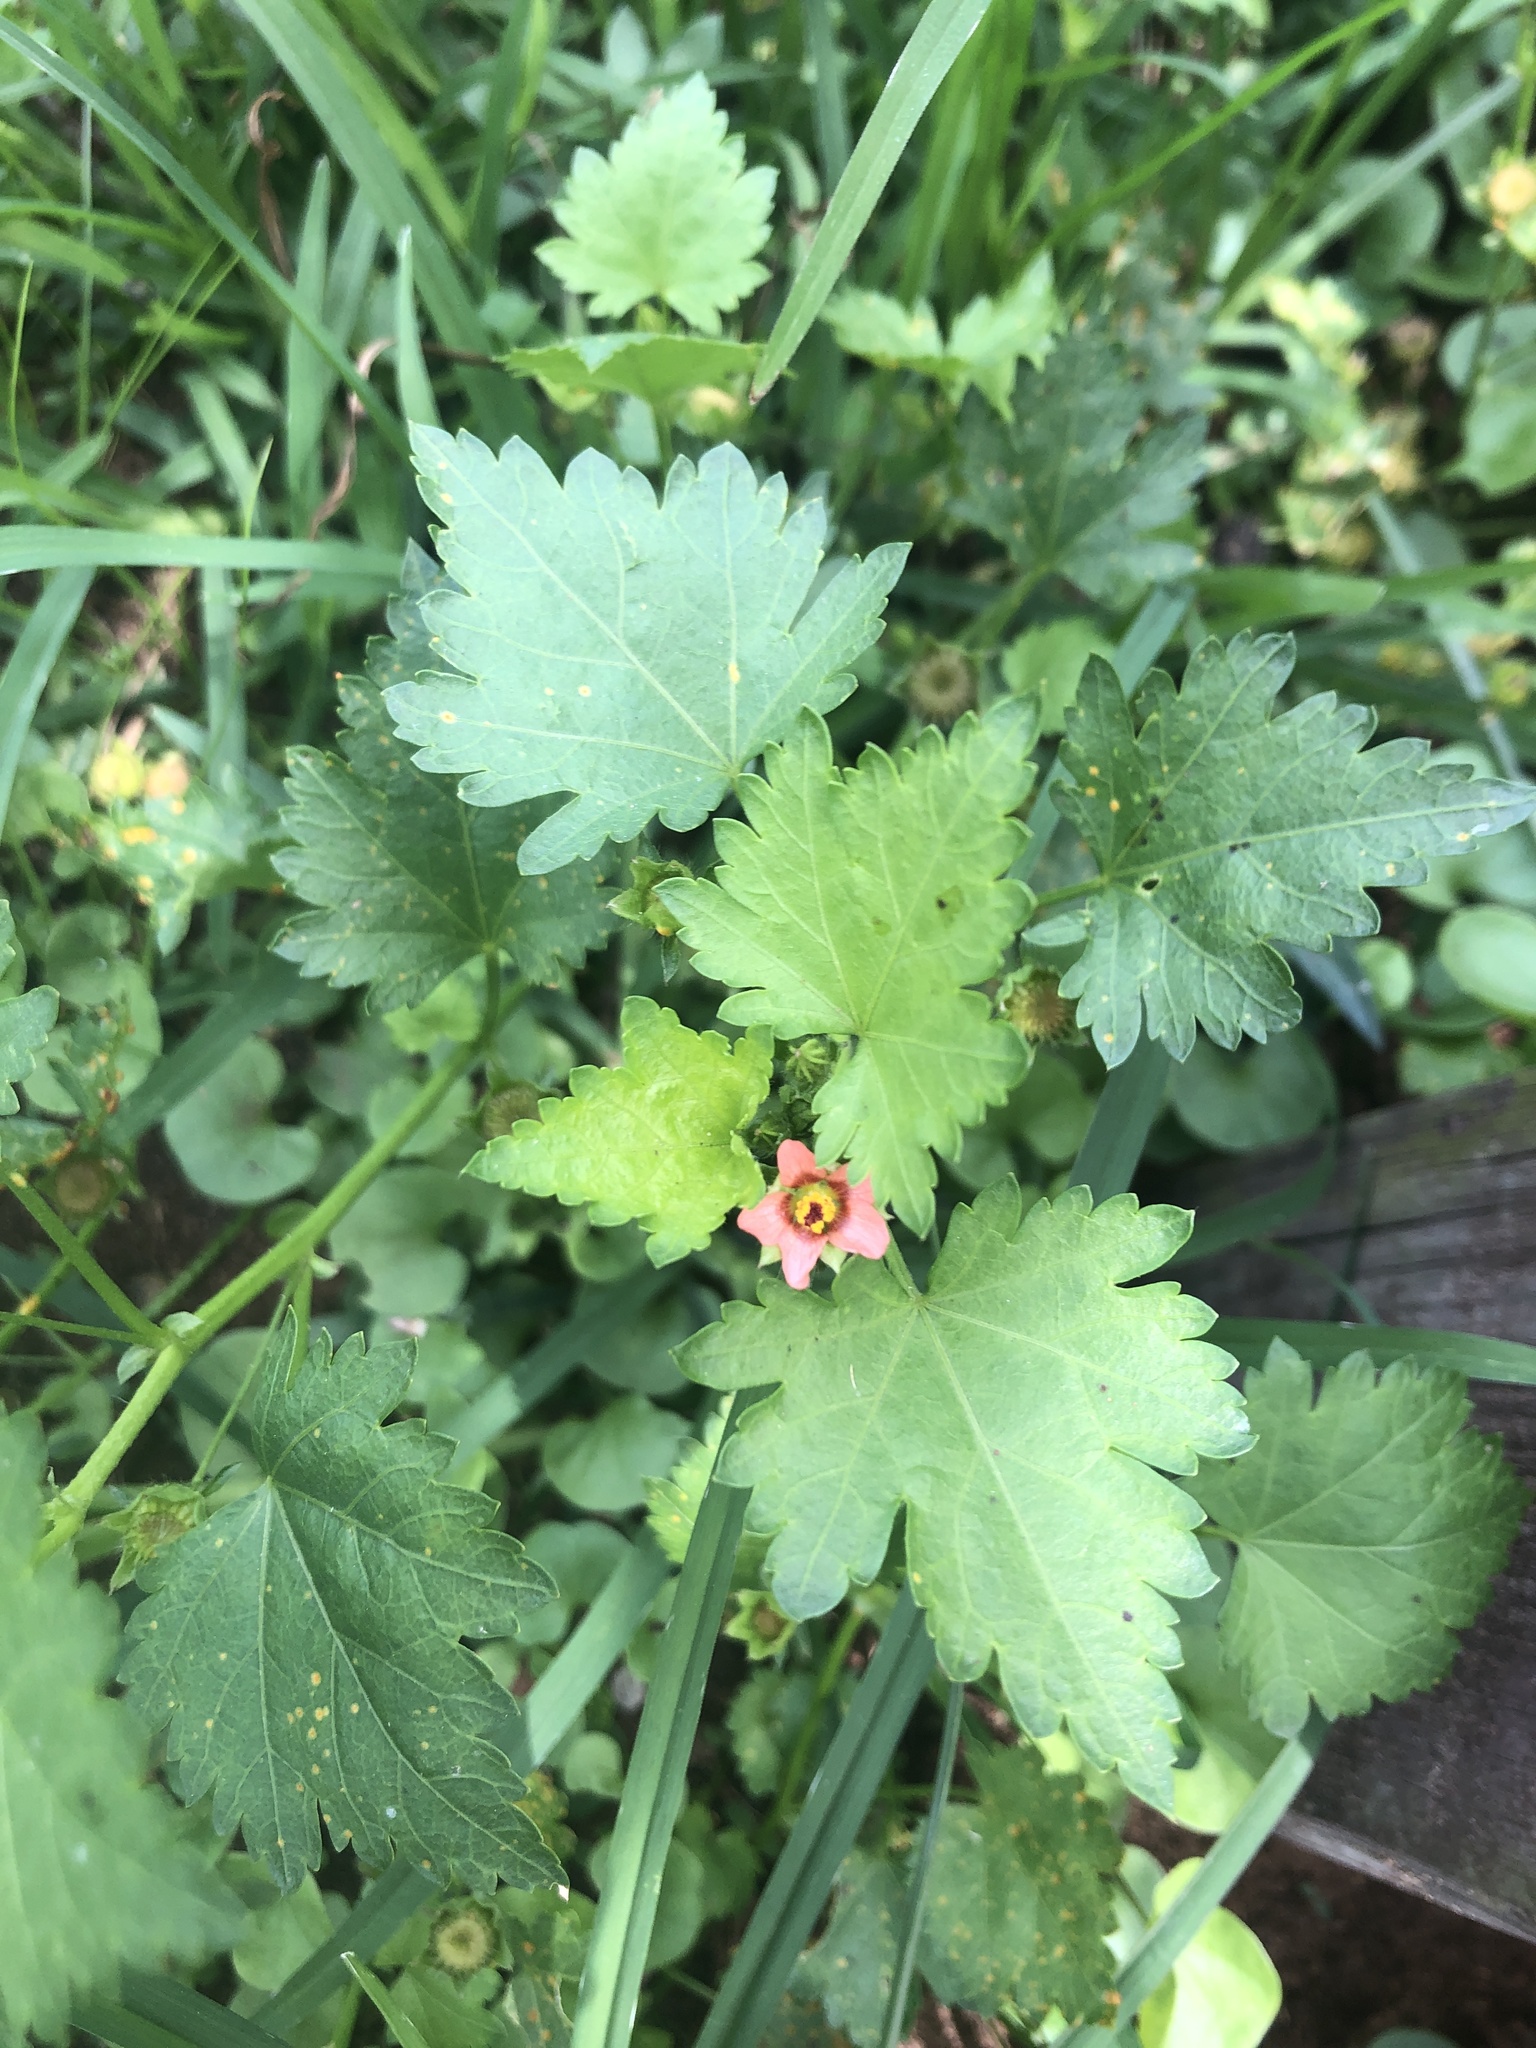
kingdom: Plantae
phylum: Tracheophyta
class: Magnoliopsida
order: Malvales
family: Malvaceae
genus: Modiola
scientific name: Modiola caroliniana
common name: Carolina bristlemallow
